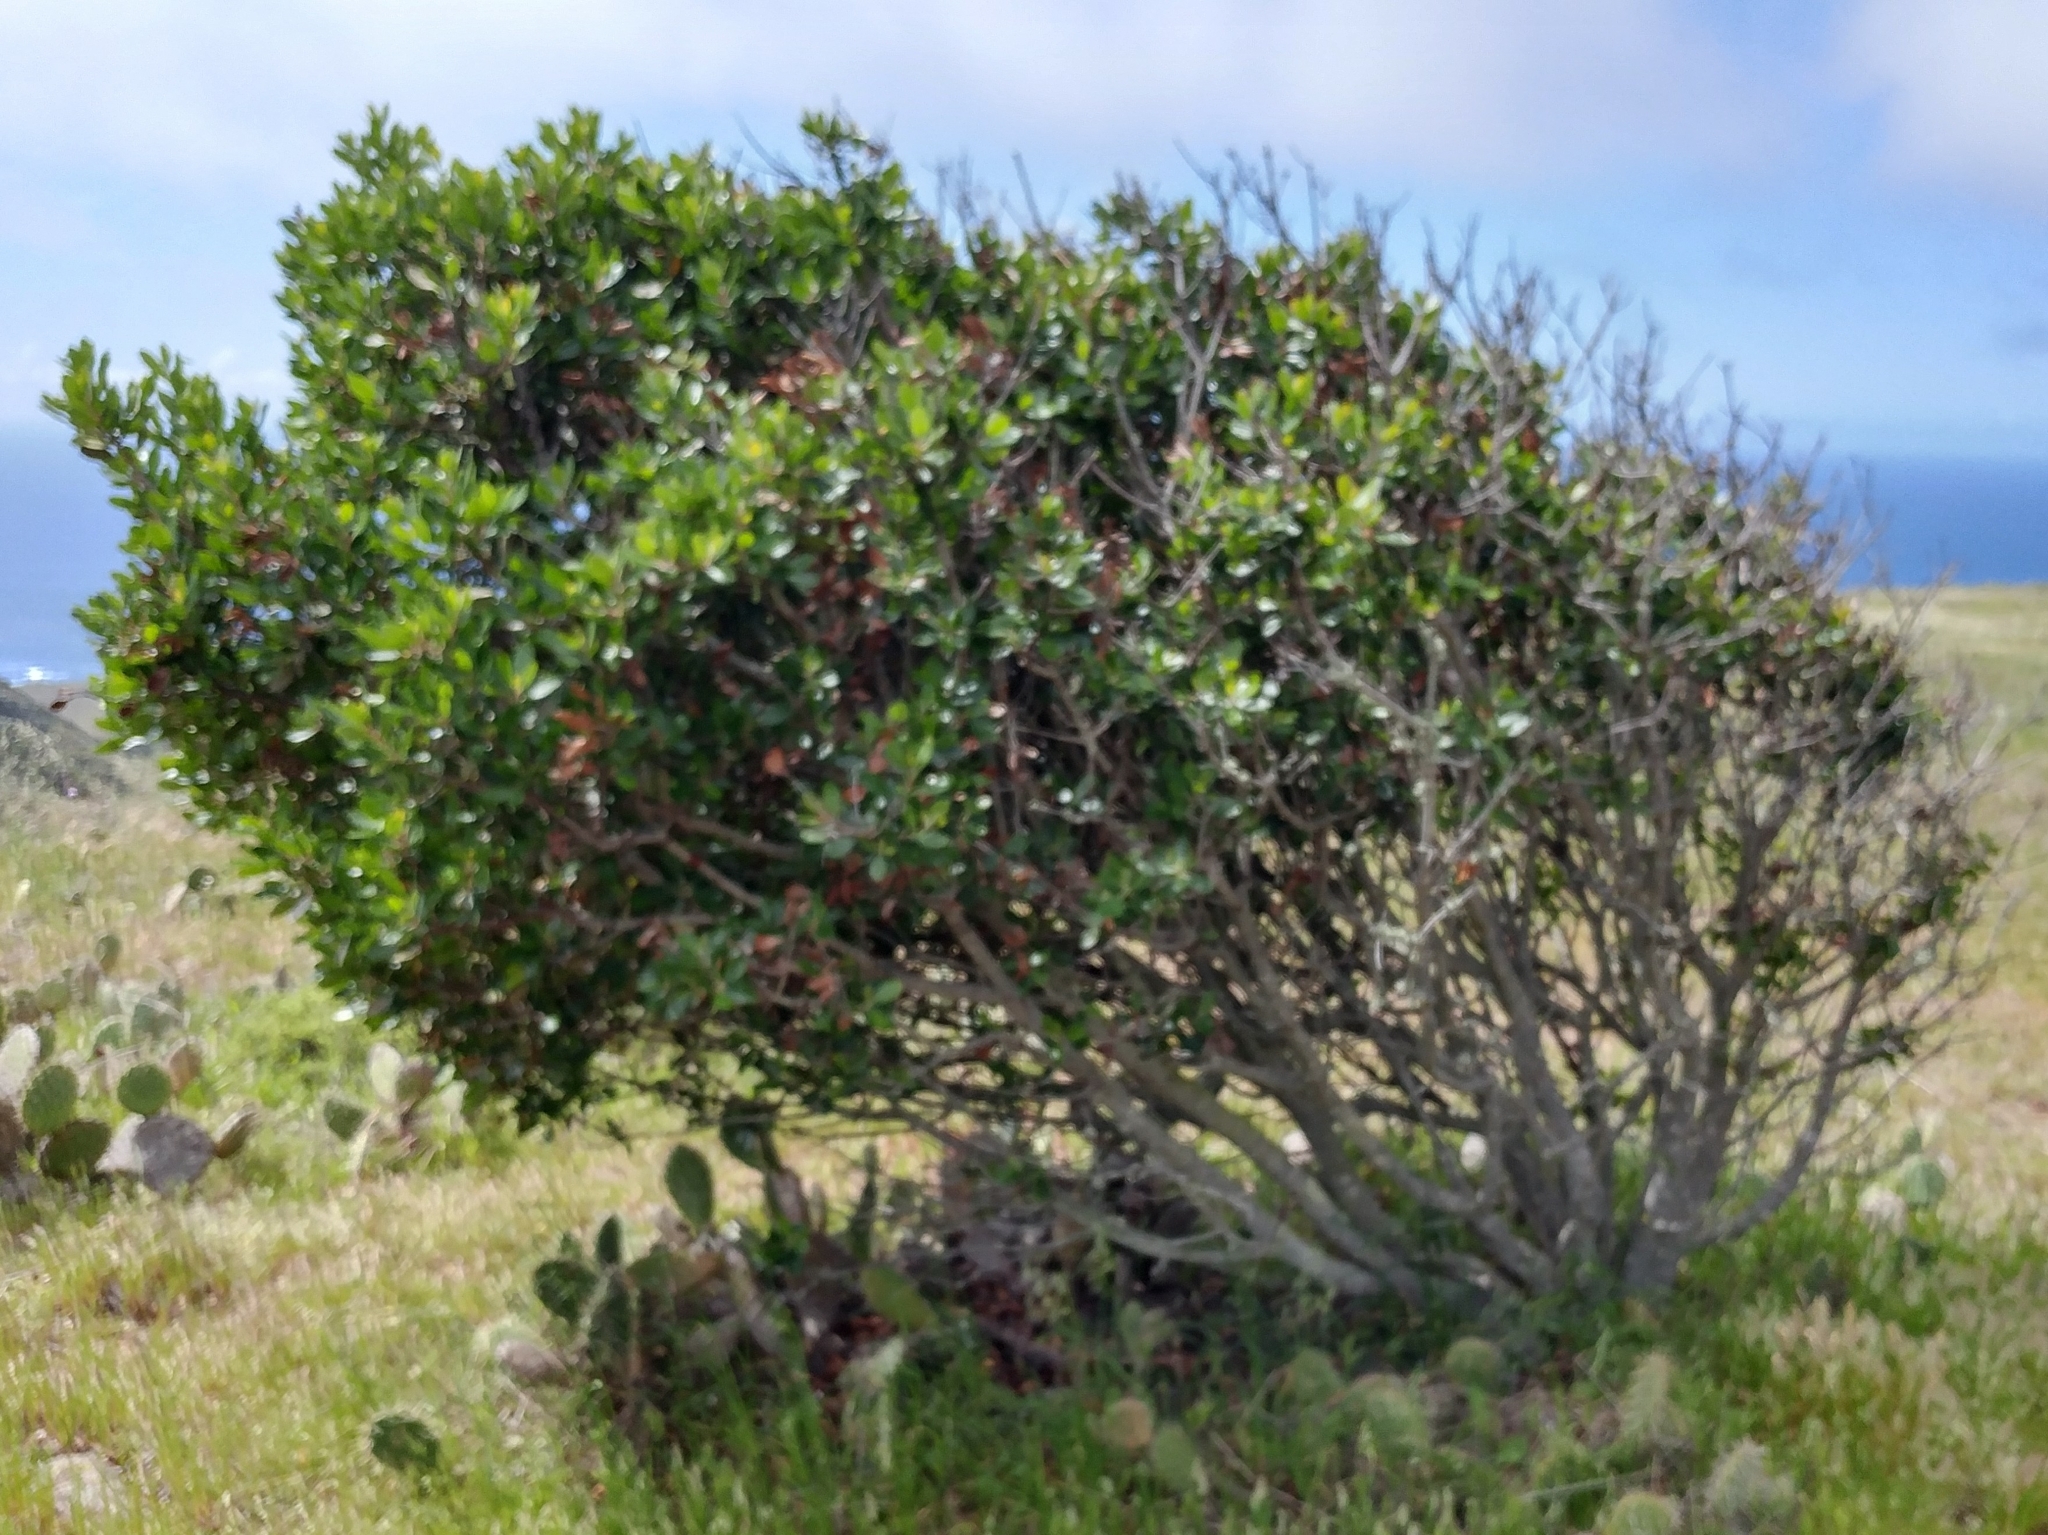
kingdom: Plantae
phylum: Tracheophyta
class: Magnoliopsida
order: Rosales
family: Rosaceae
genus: Heteromeles
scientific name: Heteromeles arbutifolia
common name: California-holly
